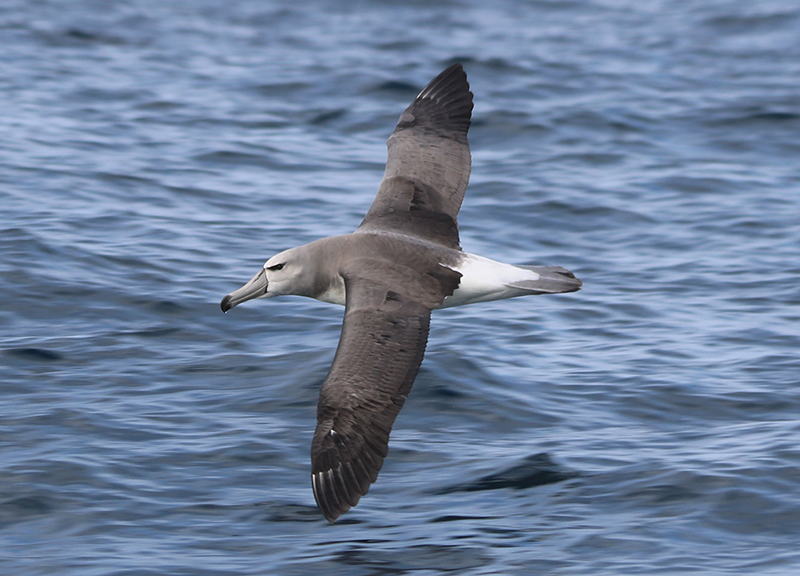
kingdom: Animalia
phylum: Chordata
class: Aves
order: Procellariiformes
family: Diomedeidae
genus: Thalassarche
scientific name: Thalassarche cauta
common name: Shy albatross
